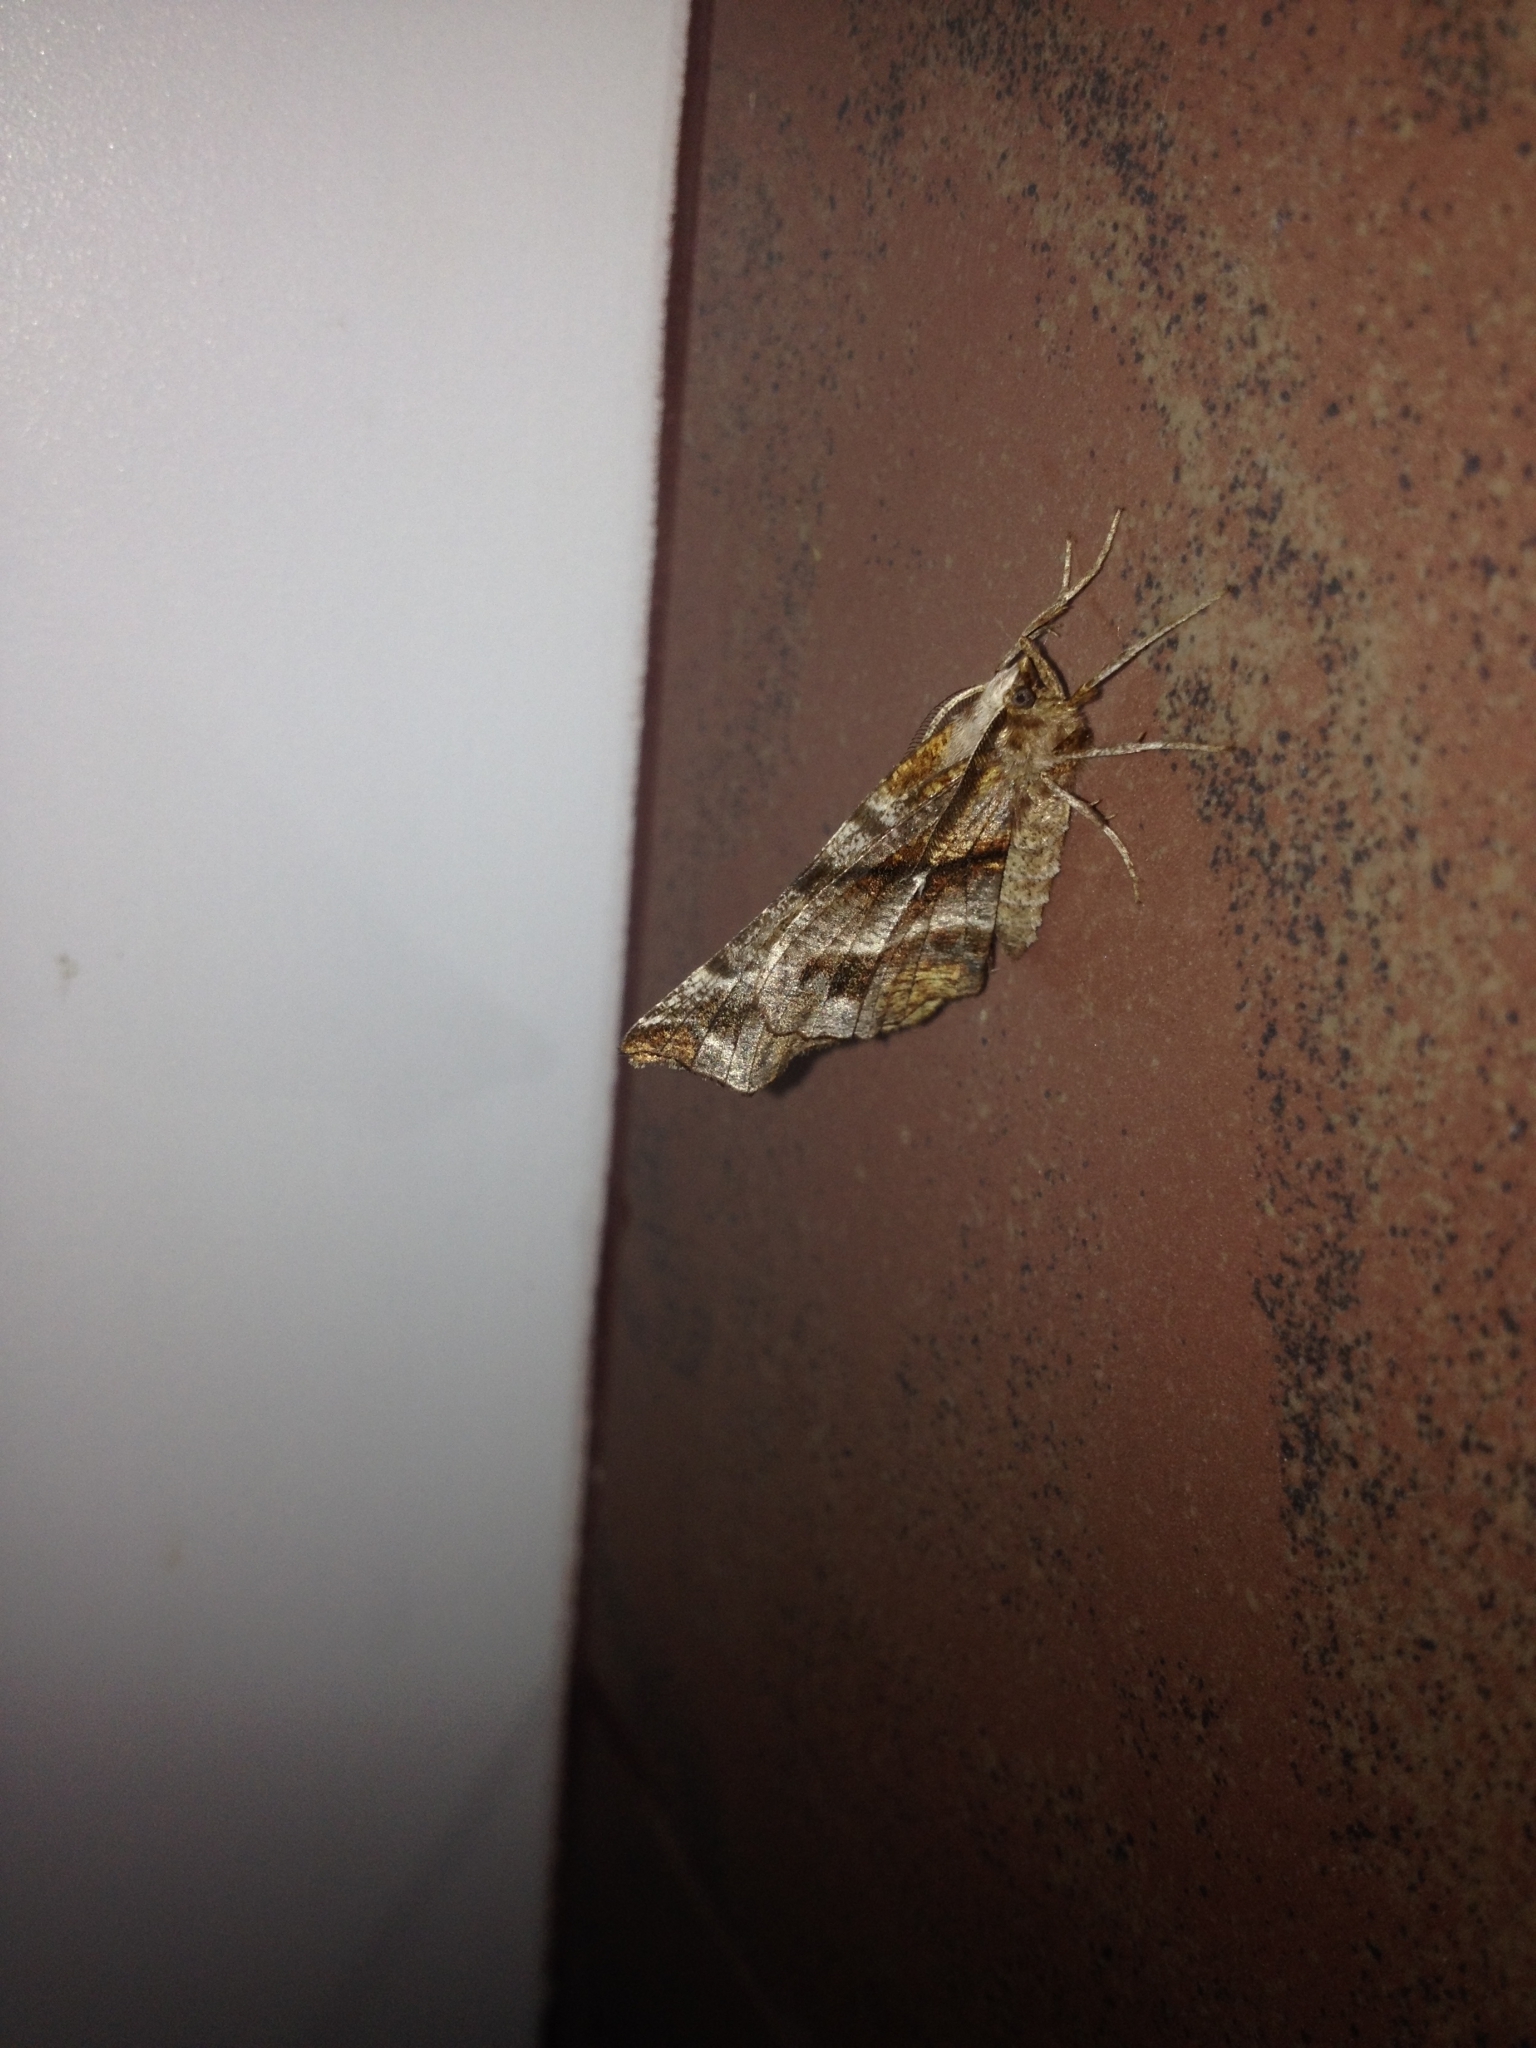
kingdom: Animalia
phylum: Arthropoda
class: Insecta
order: Lepidoptera
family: Geometridae
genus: Selenia
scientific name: Selenia dentaria
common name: Early thorn
